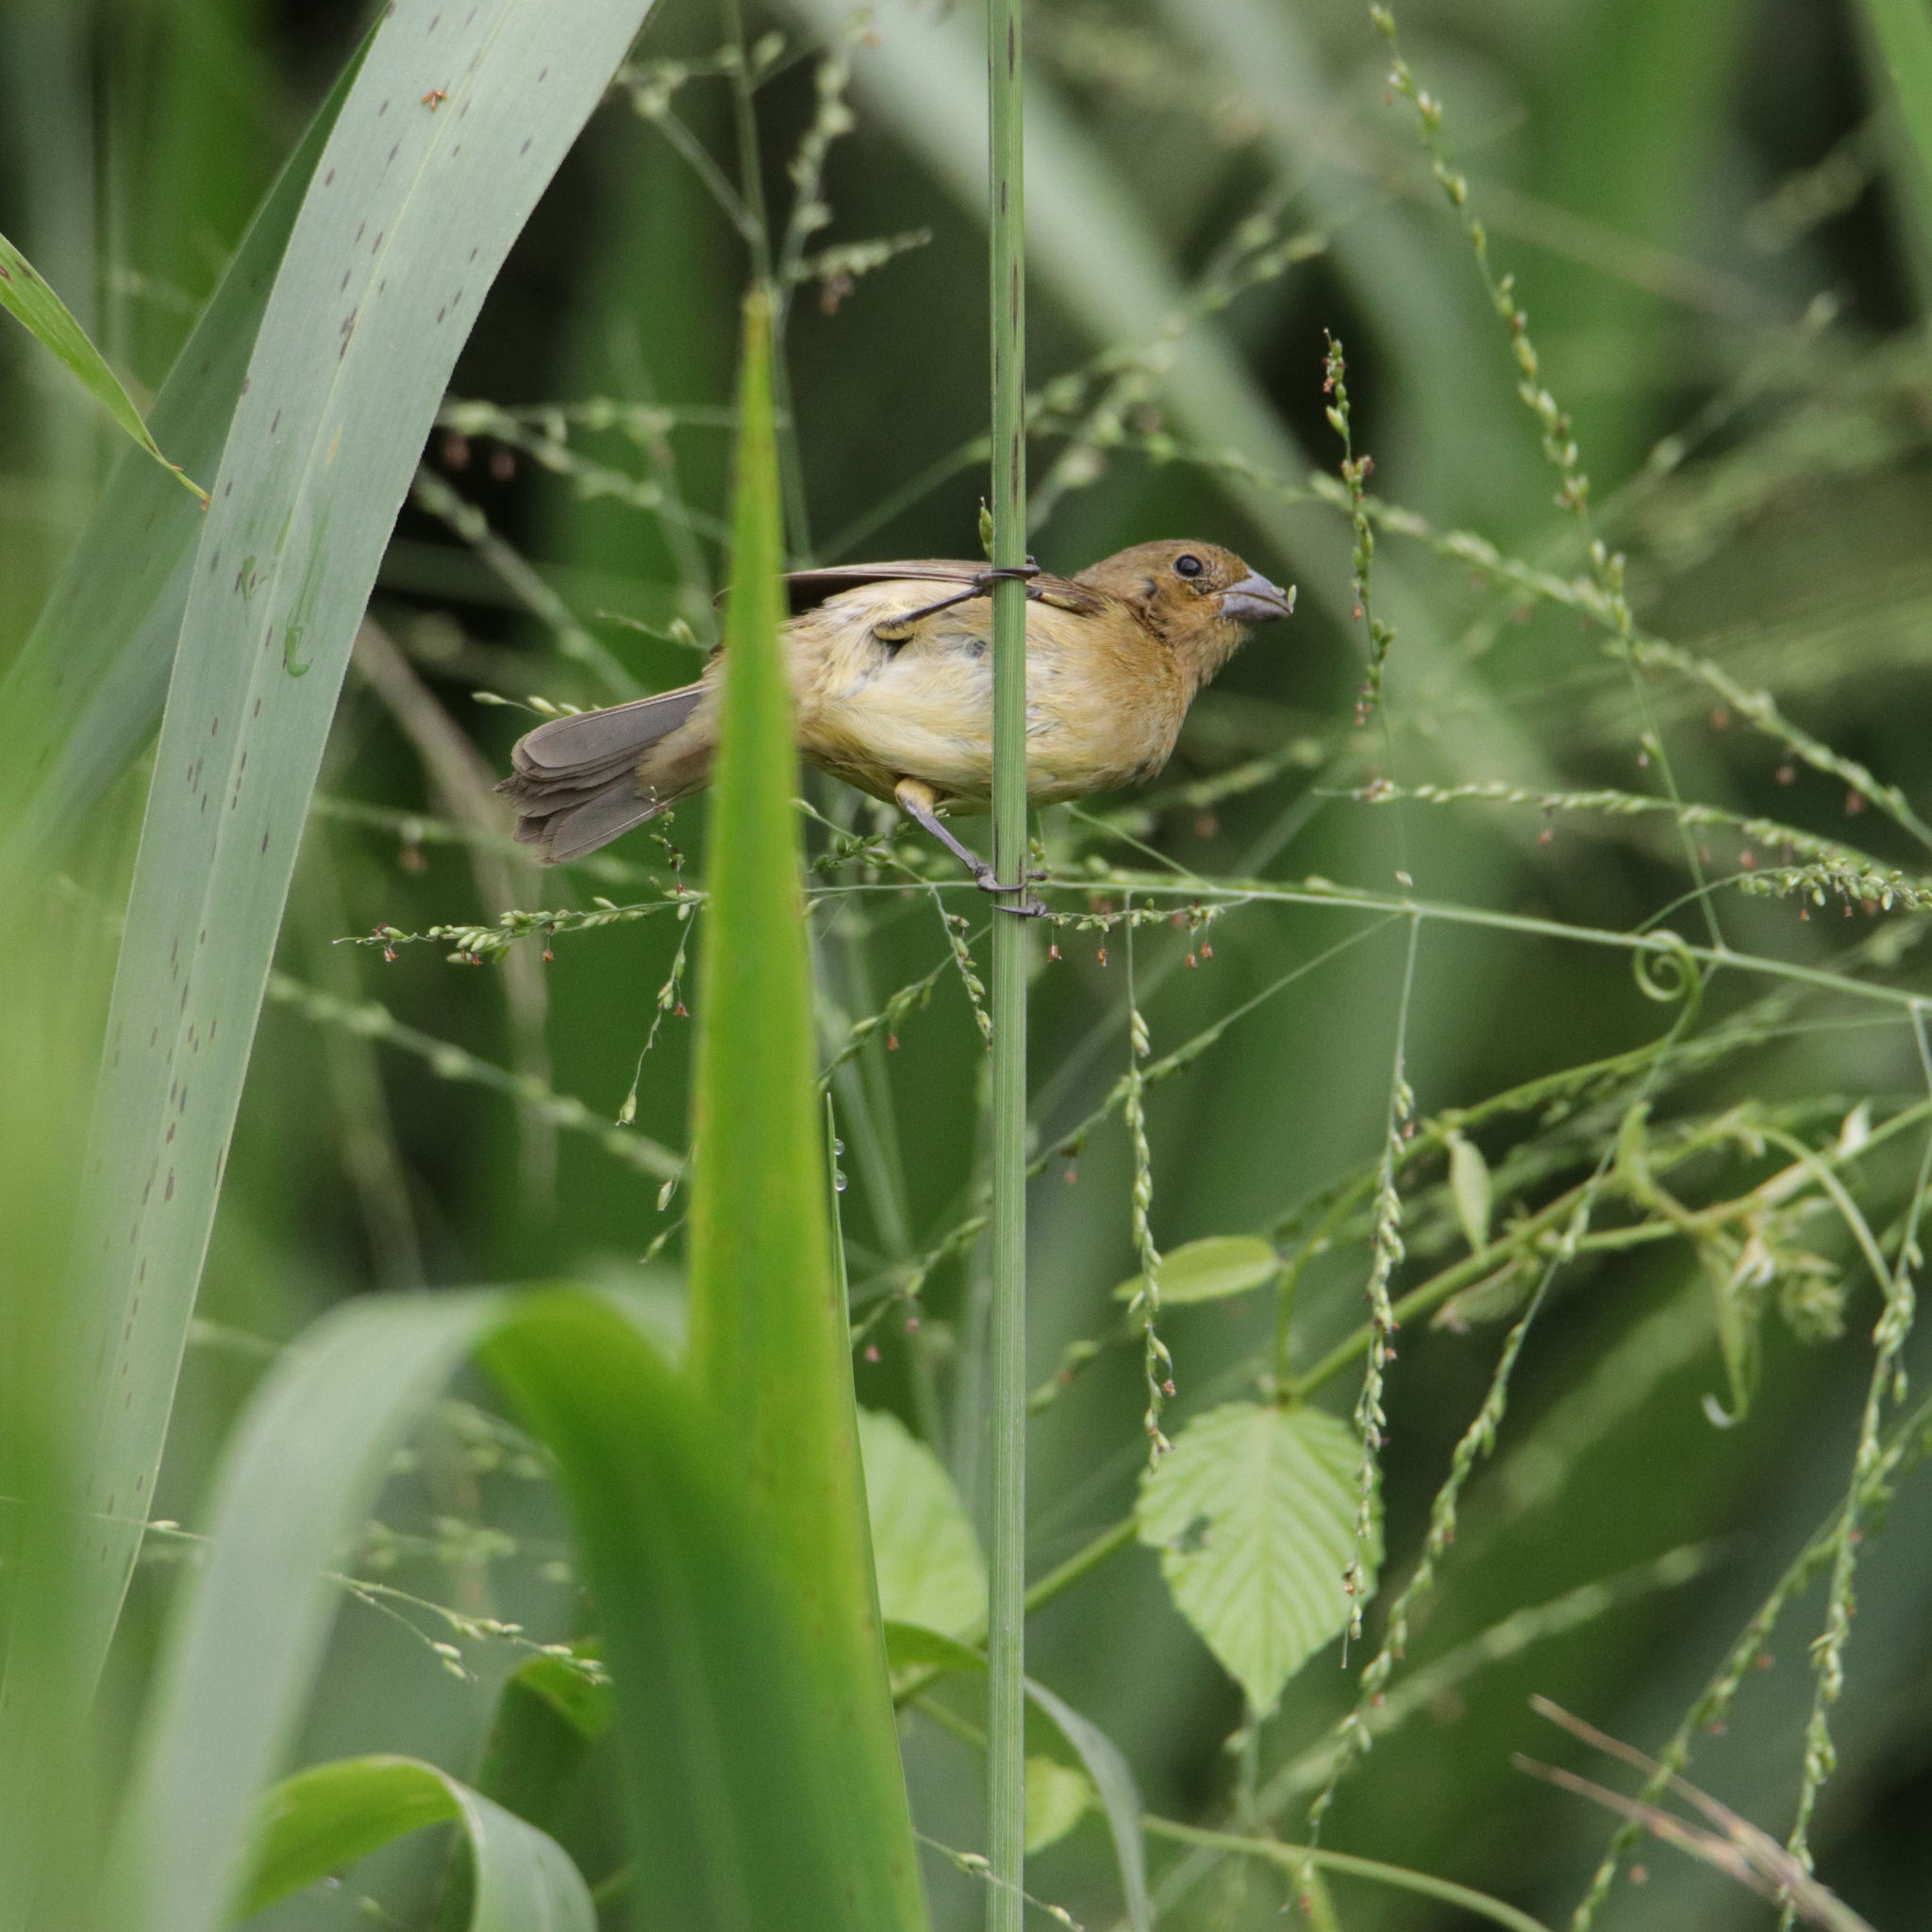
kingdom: Animalia
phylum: Chordata
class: Aves
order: Passeriformes
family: Thraupidae
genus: Sporophila
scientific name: Sporophila nigricollis
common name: Yellow-bellied seedeater
